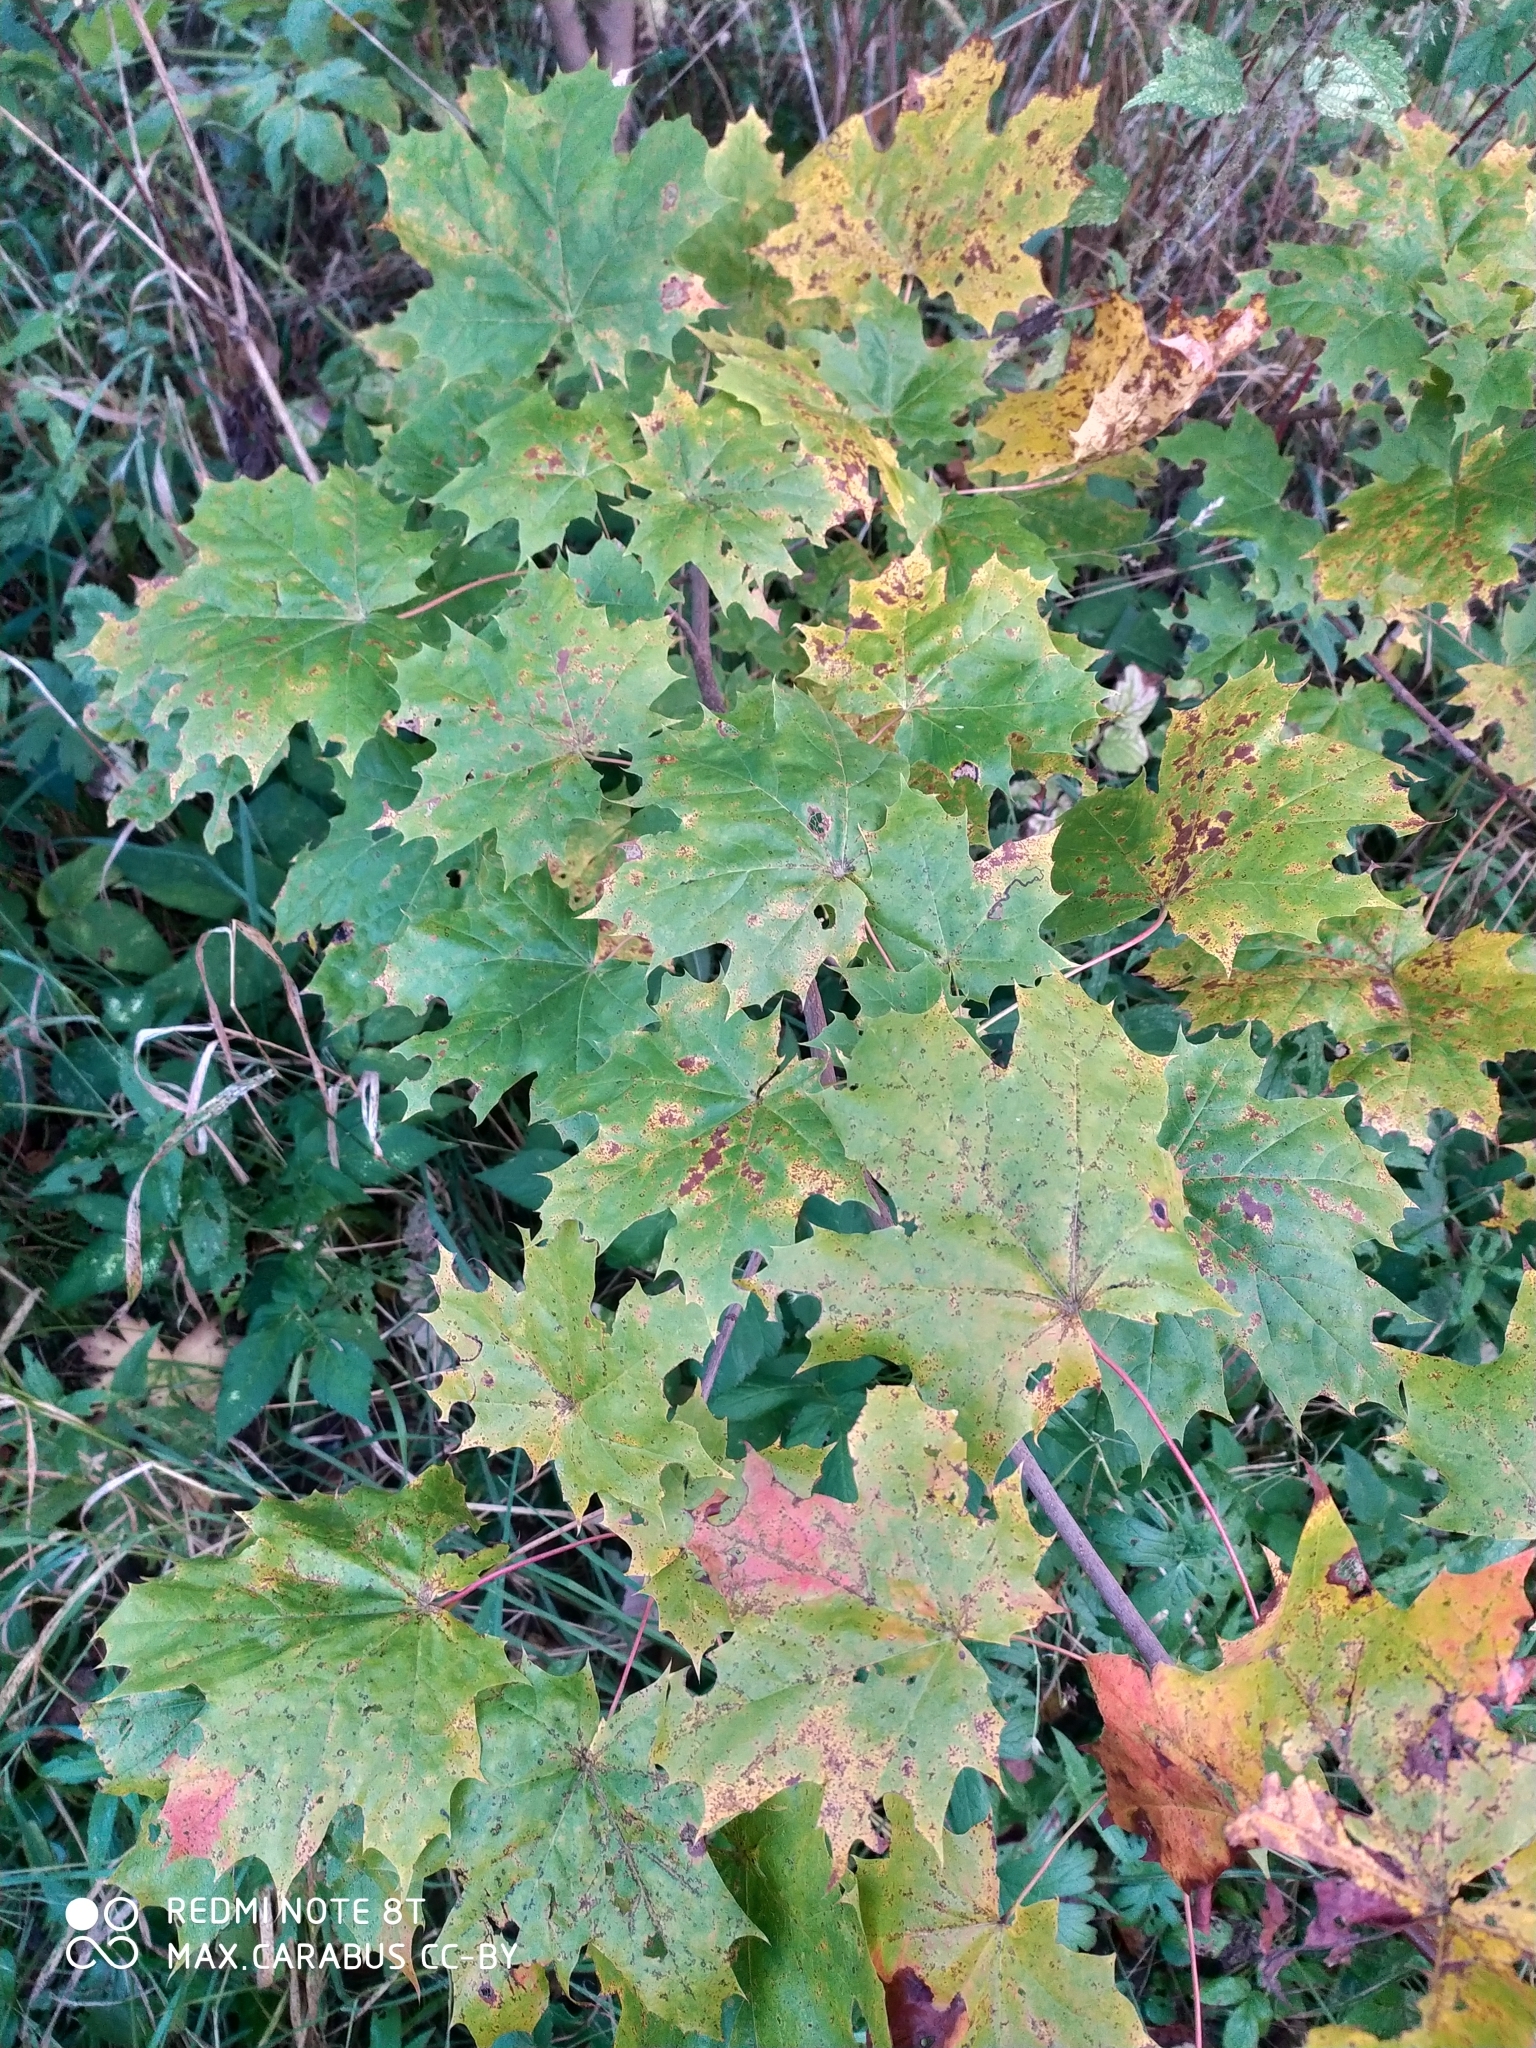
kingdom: Plantae
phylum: Tracheophyta
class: Magnoliopsida
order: Sapindales
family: Sapindaceae
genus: Acer
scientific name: Acer platanoides
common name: Norway maple
